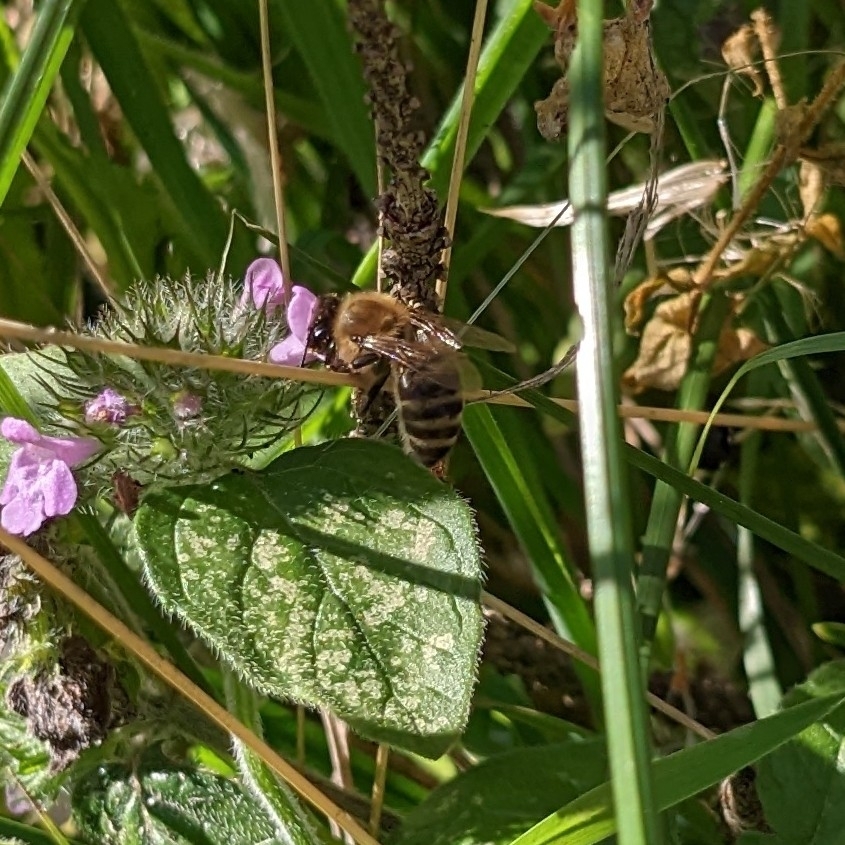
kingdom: Animalia
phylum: Arthropoda
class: Insecta
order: Hymenoptera
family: Apidae
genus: Apis
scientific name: Apis mellifera
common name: Honey bee
